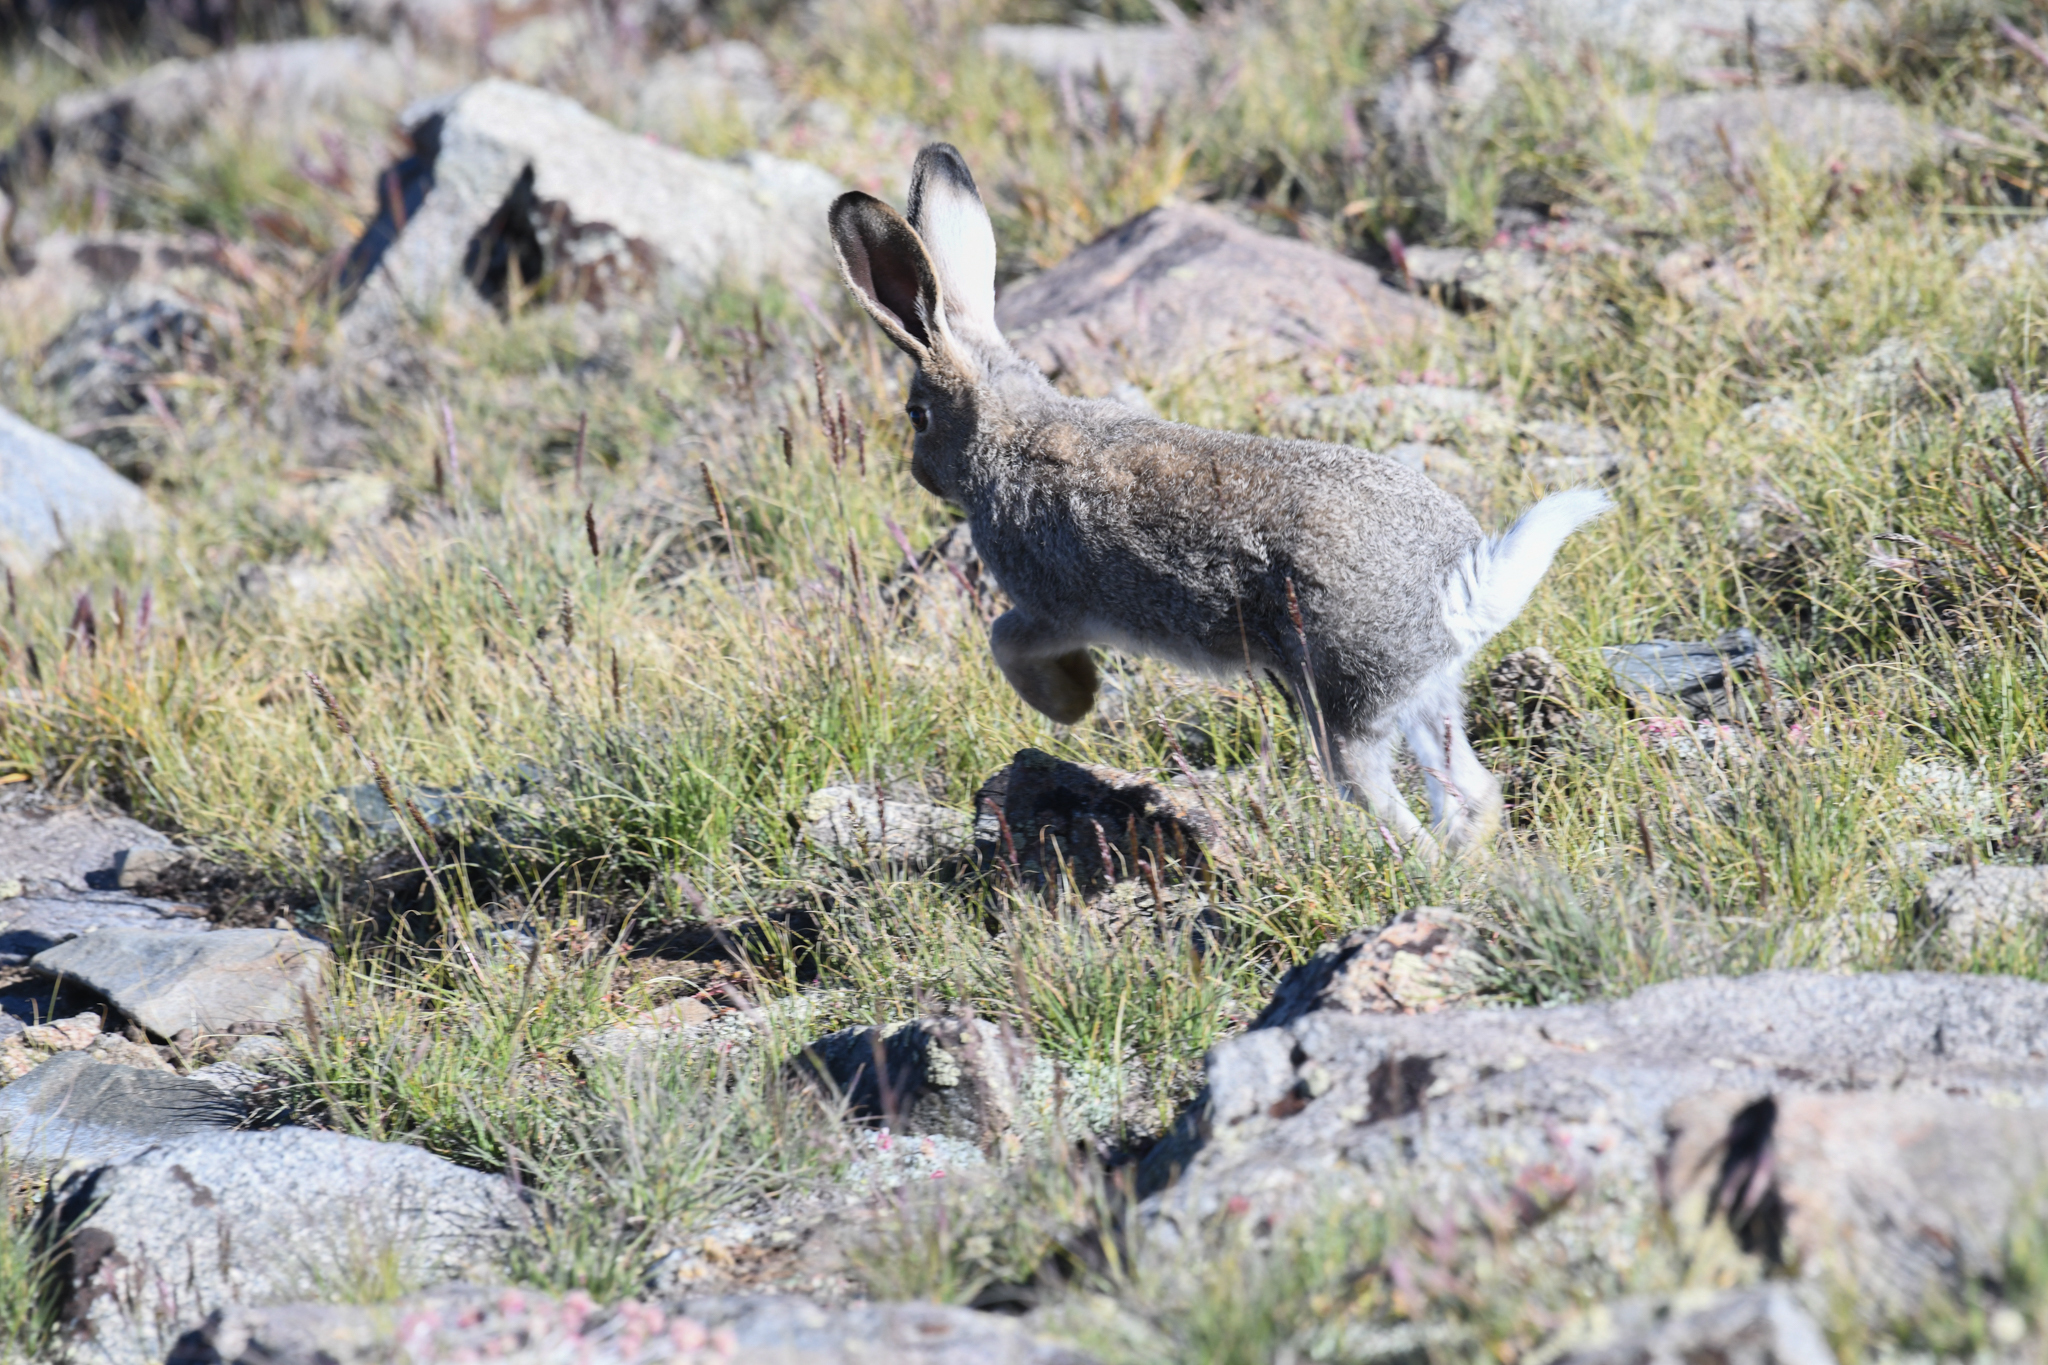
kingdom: Animalia
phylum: Chordata
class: Mammalia
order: Lagomorpha
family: Leporidae
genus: Lepus
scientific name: Lepus townsendii
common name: White-tailed jackrabbit
